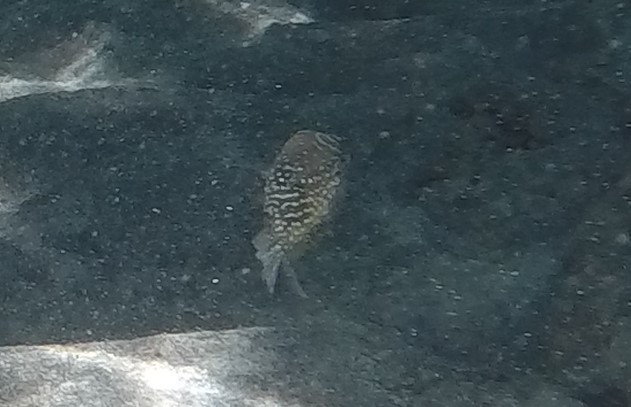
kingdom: Animalia
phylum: Chordata
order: Tetraodontiformes
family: Tetraodontidae
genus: Canthigaster
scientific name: Canthigaster amboinensis
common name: Ambon pufferfish
